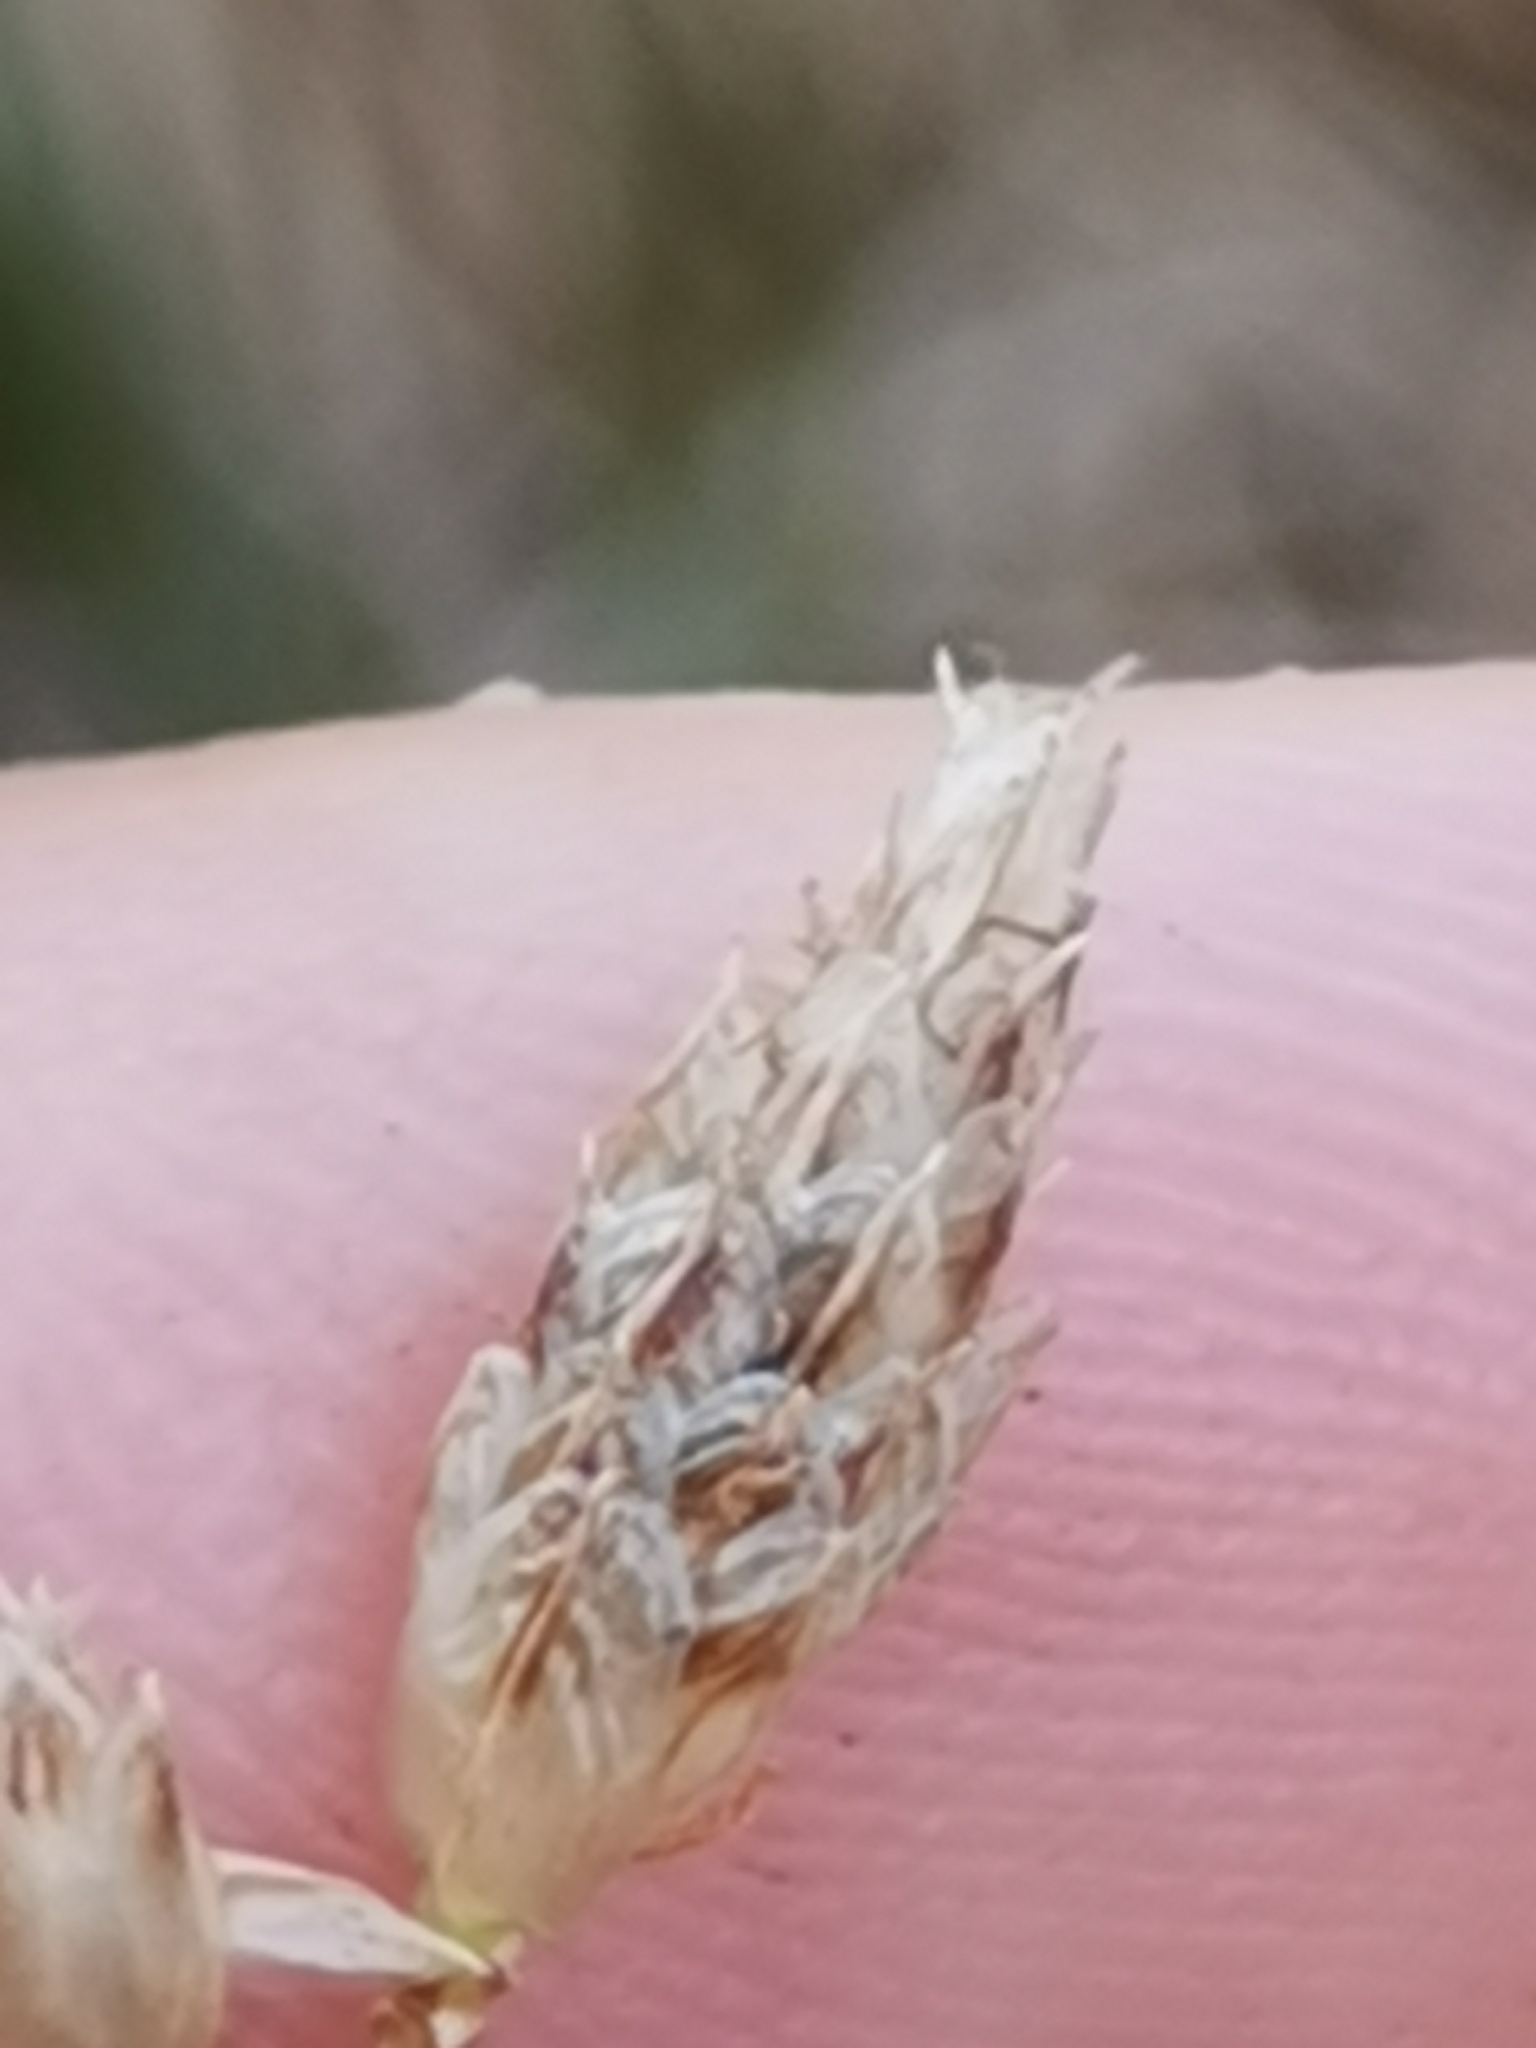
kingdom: Plantae
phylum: Tracheophyta
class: Liliopsida
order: Poales
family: Cyperaceae
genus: Schoenoplectus
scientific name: Schoenoplectus triqueter
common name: Triangular club-rush
